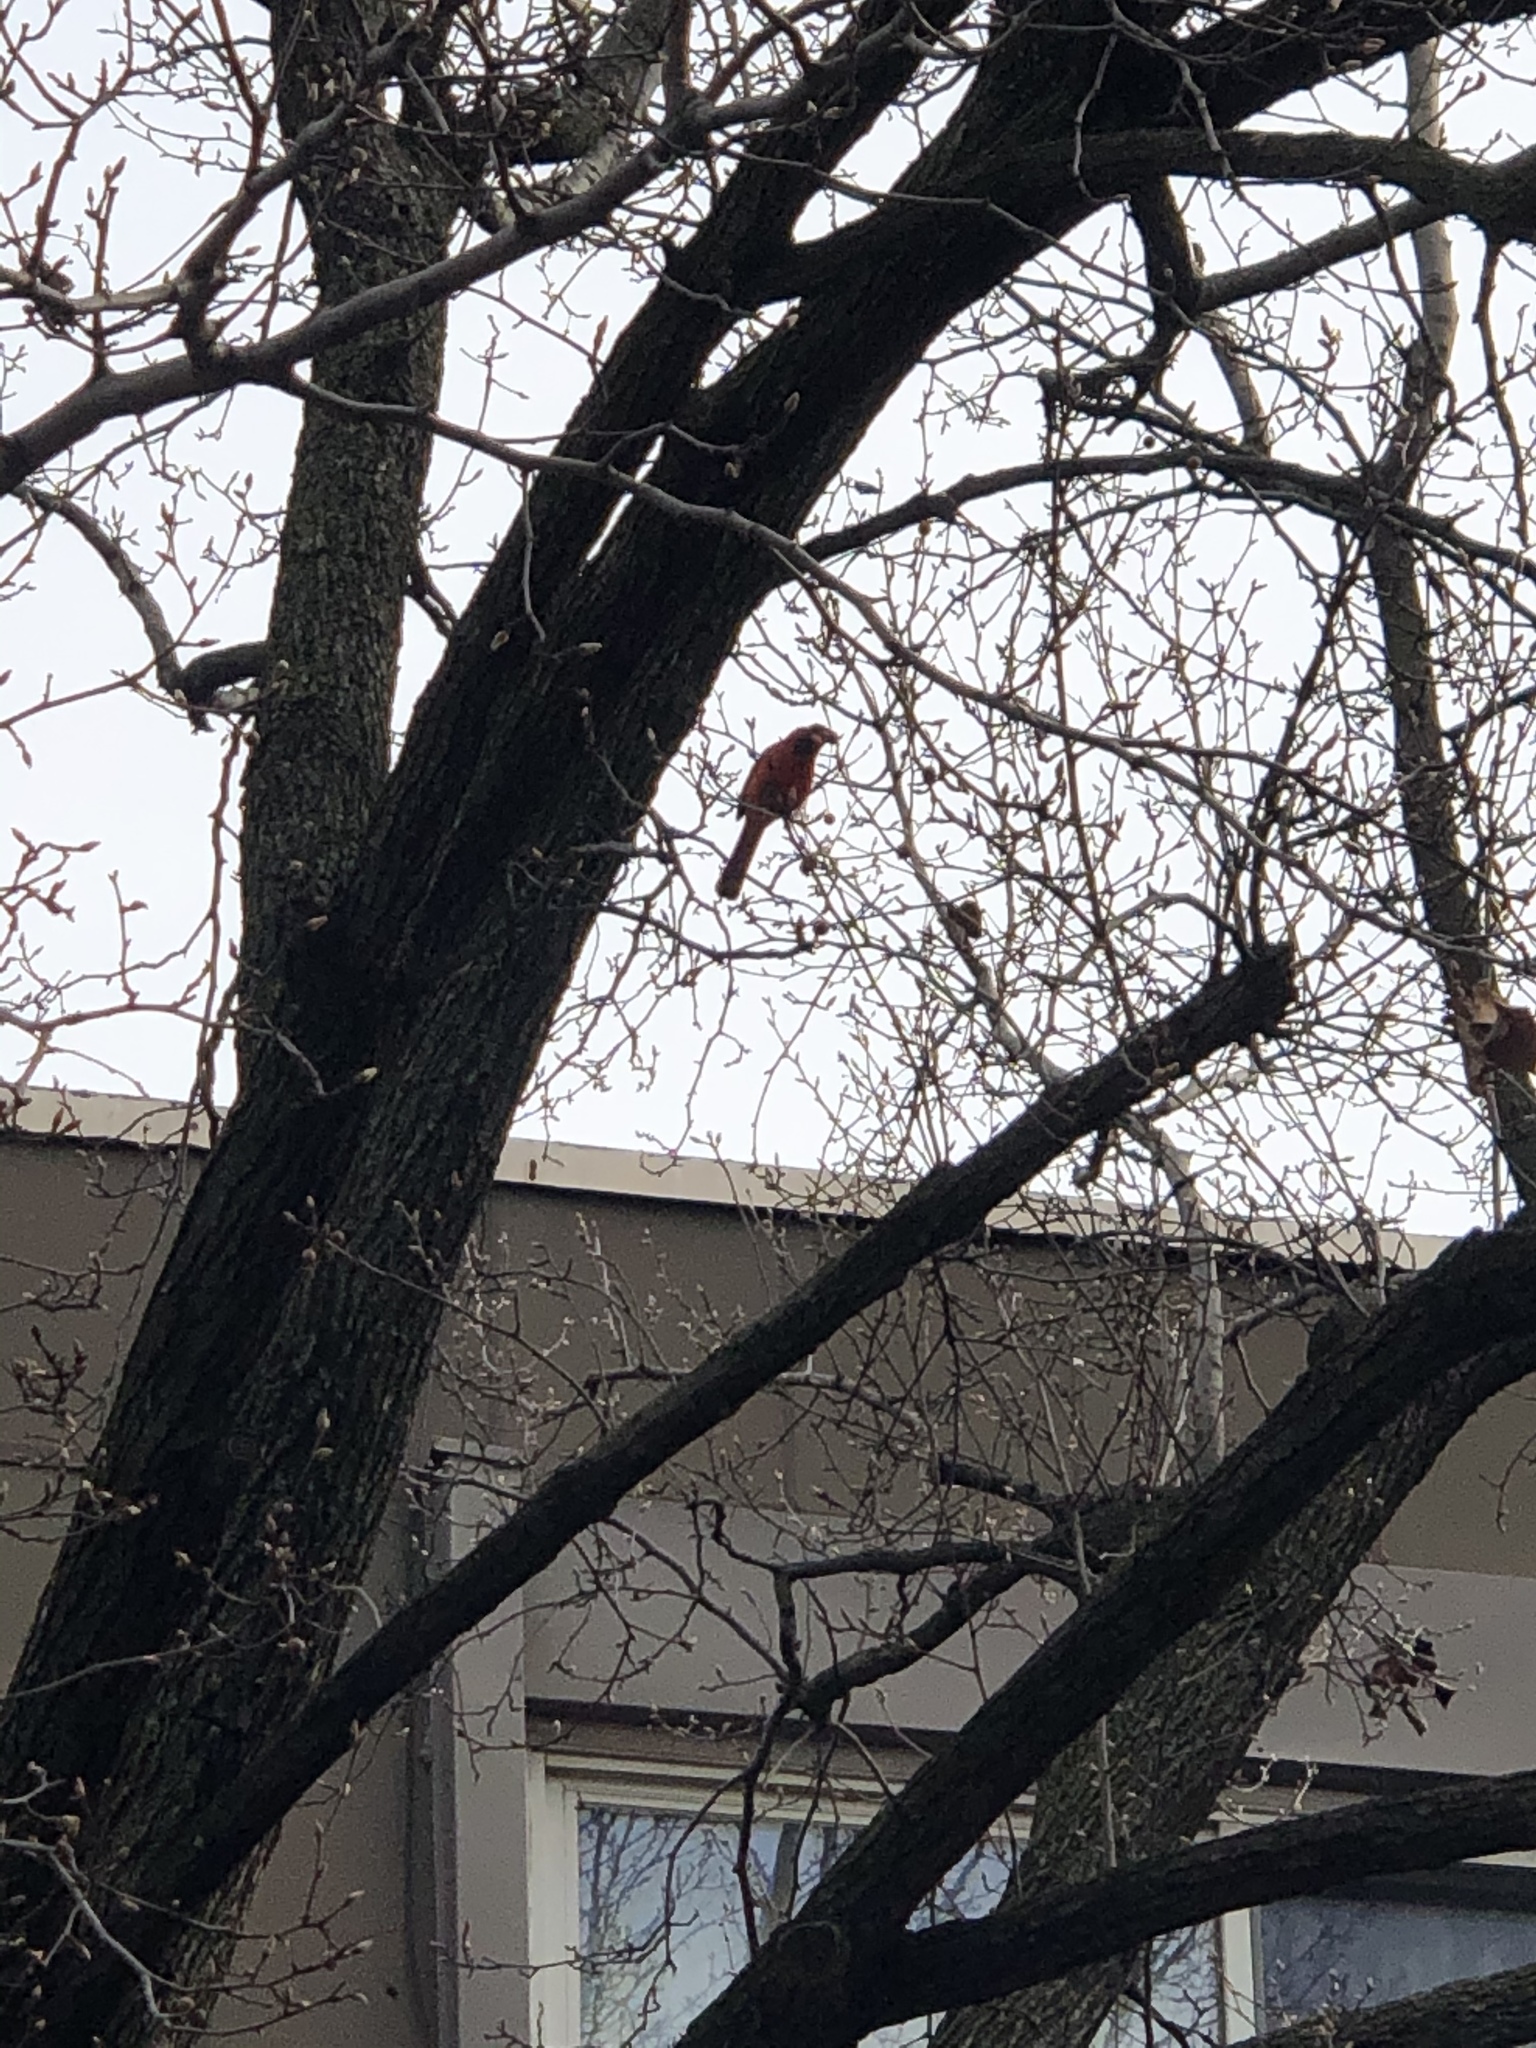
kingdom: Animalia
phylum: Chordata
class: Aves
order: Passeriformes
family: Cardinalidae
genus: Cardinalis
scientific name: Cardinalis cardinalis
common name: Northern cardinal
